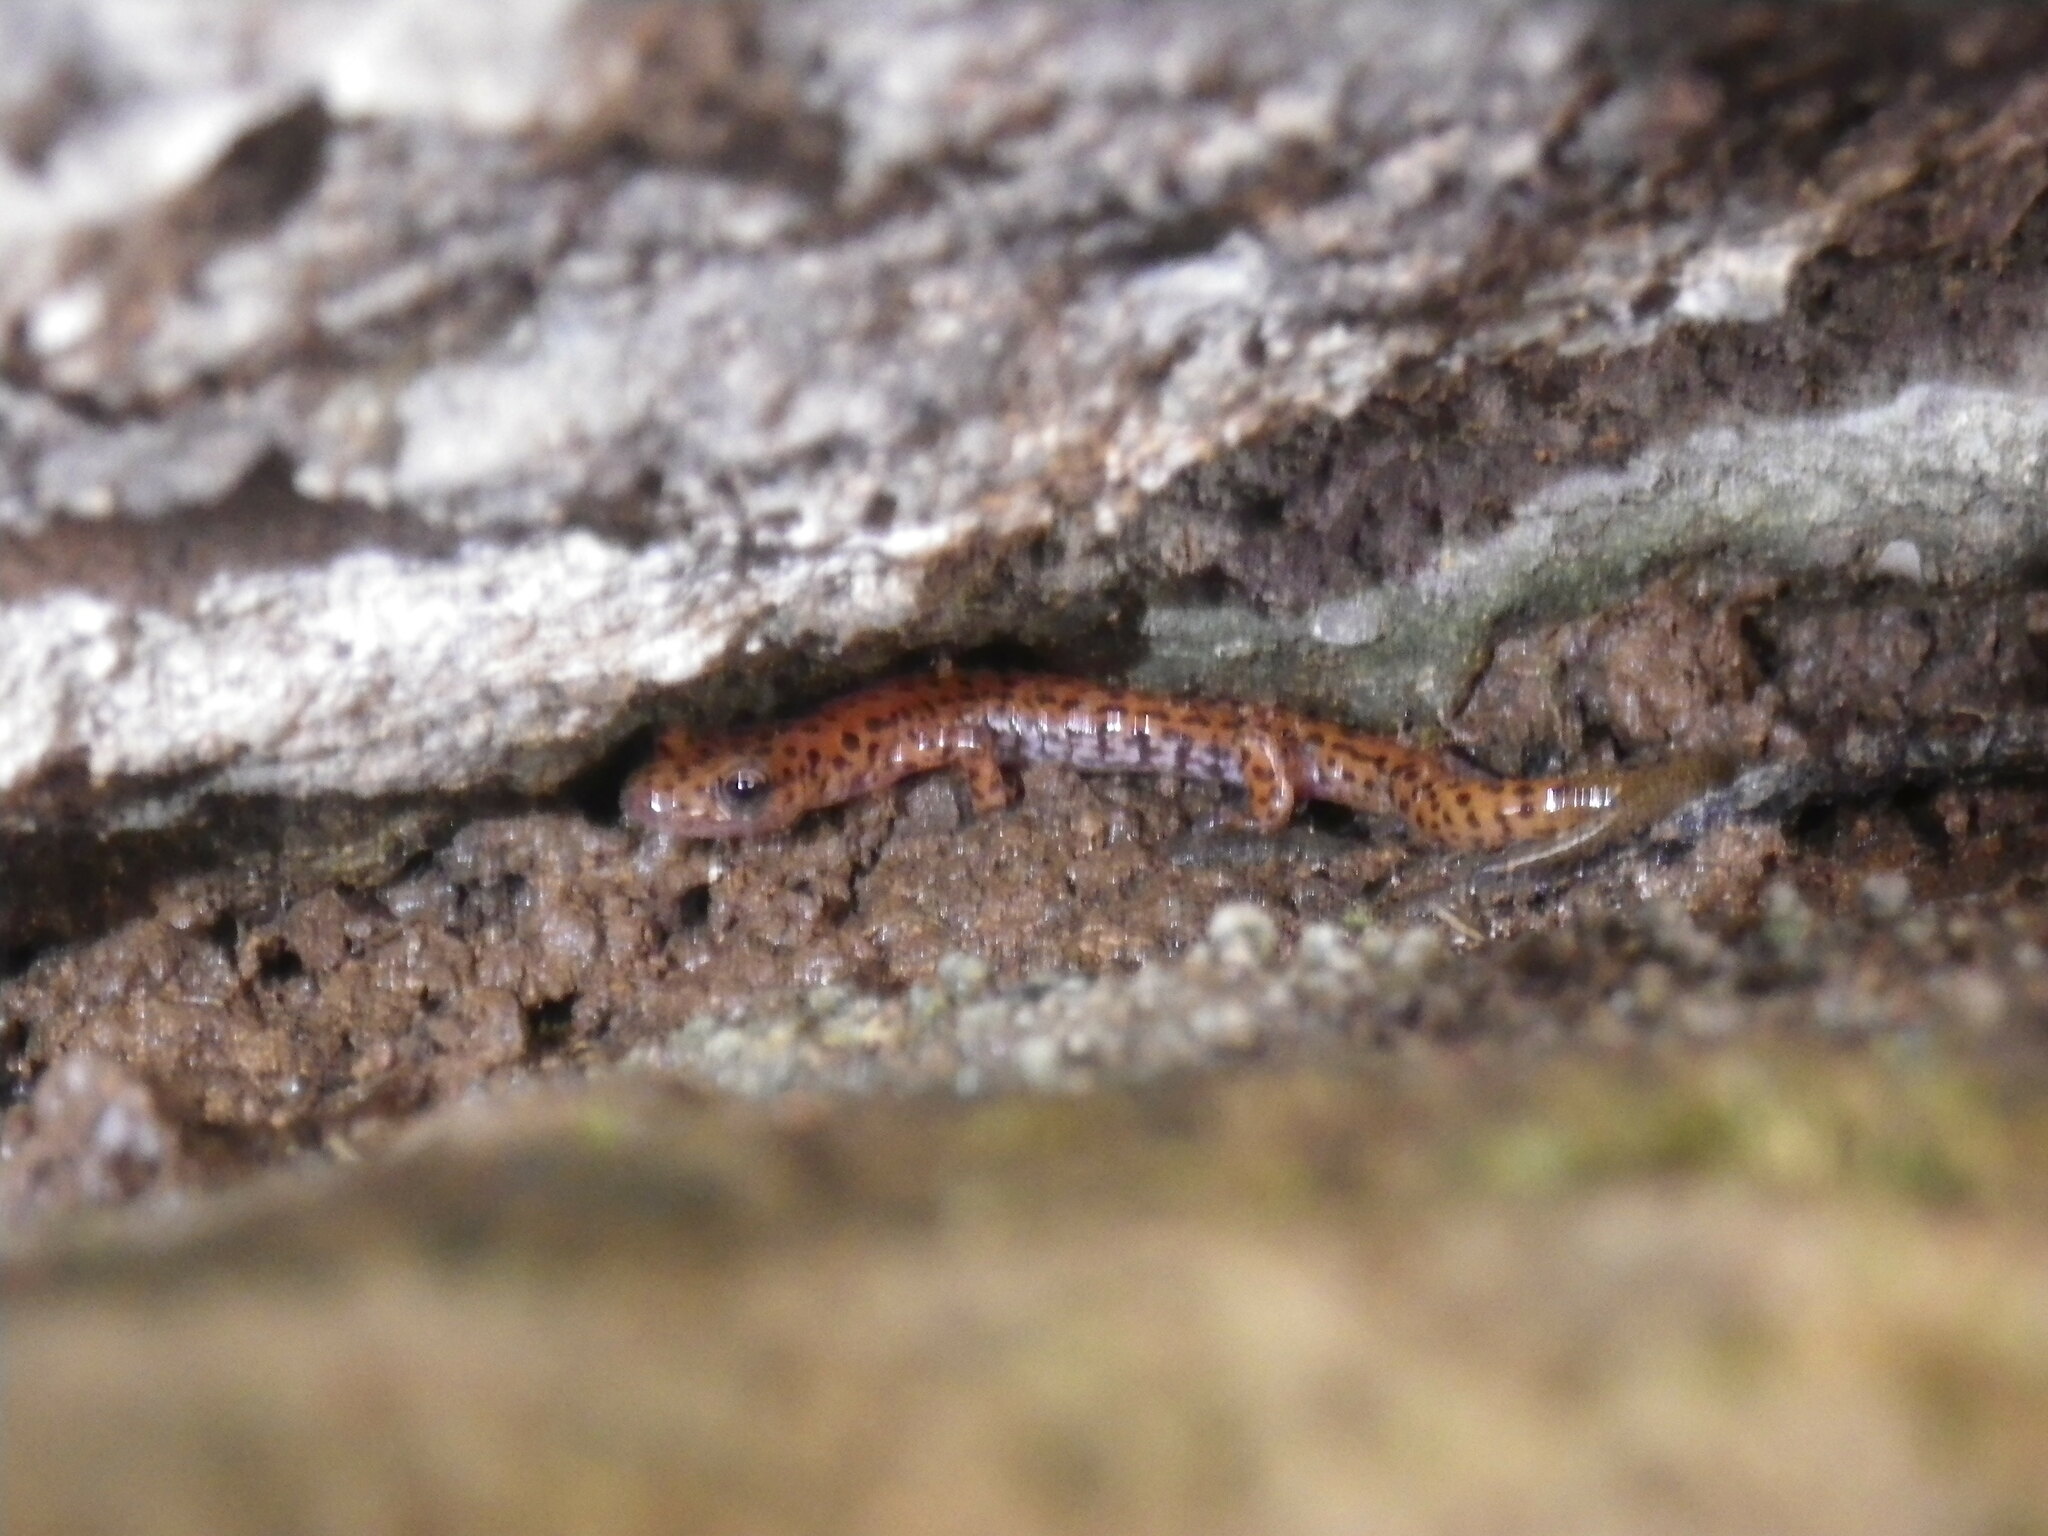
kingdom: Animalia
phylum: Chordata
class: Amphibia
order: Caudata
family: Plethodontidae
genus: Eurycea
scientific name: Eurycea lucifuga
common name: Cave salamander
